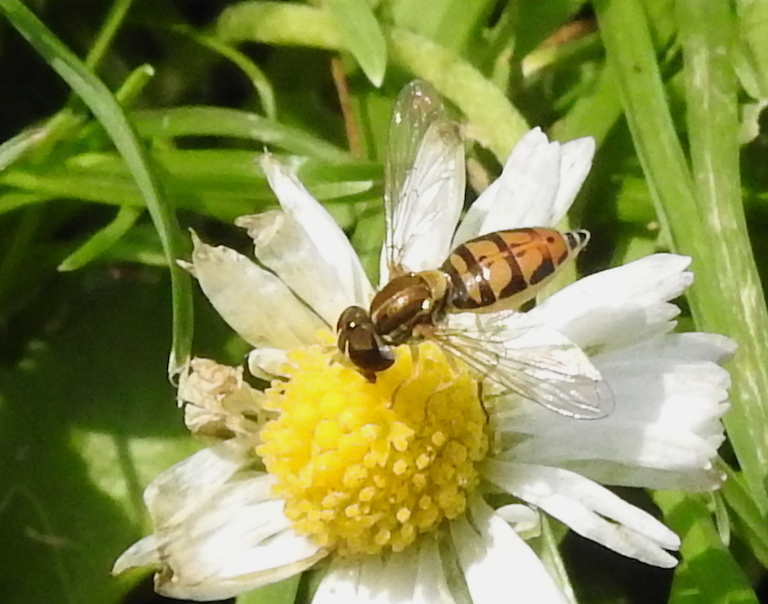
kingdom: Animalia
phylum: Arthropoda
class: Insecta
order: Diptera
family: Syrphidae
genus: Toxomerus
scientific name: Toxomerus marginatus
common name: Syrphid fly
